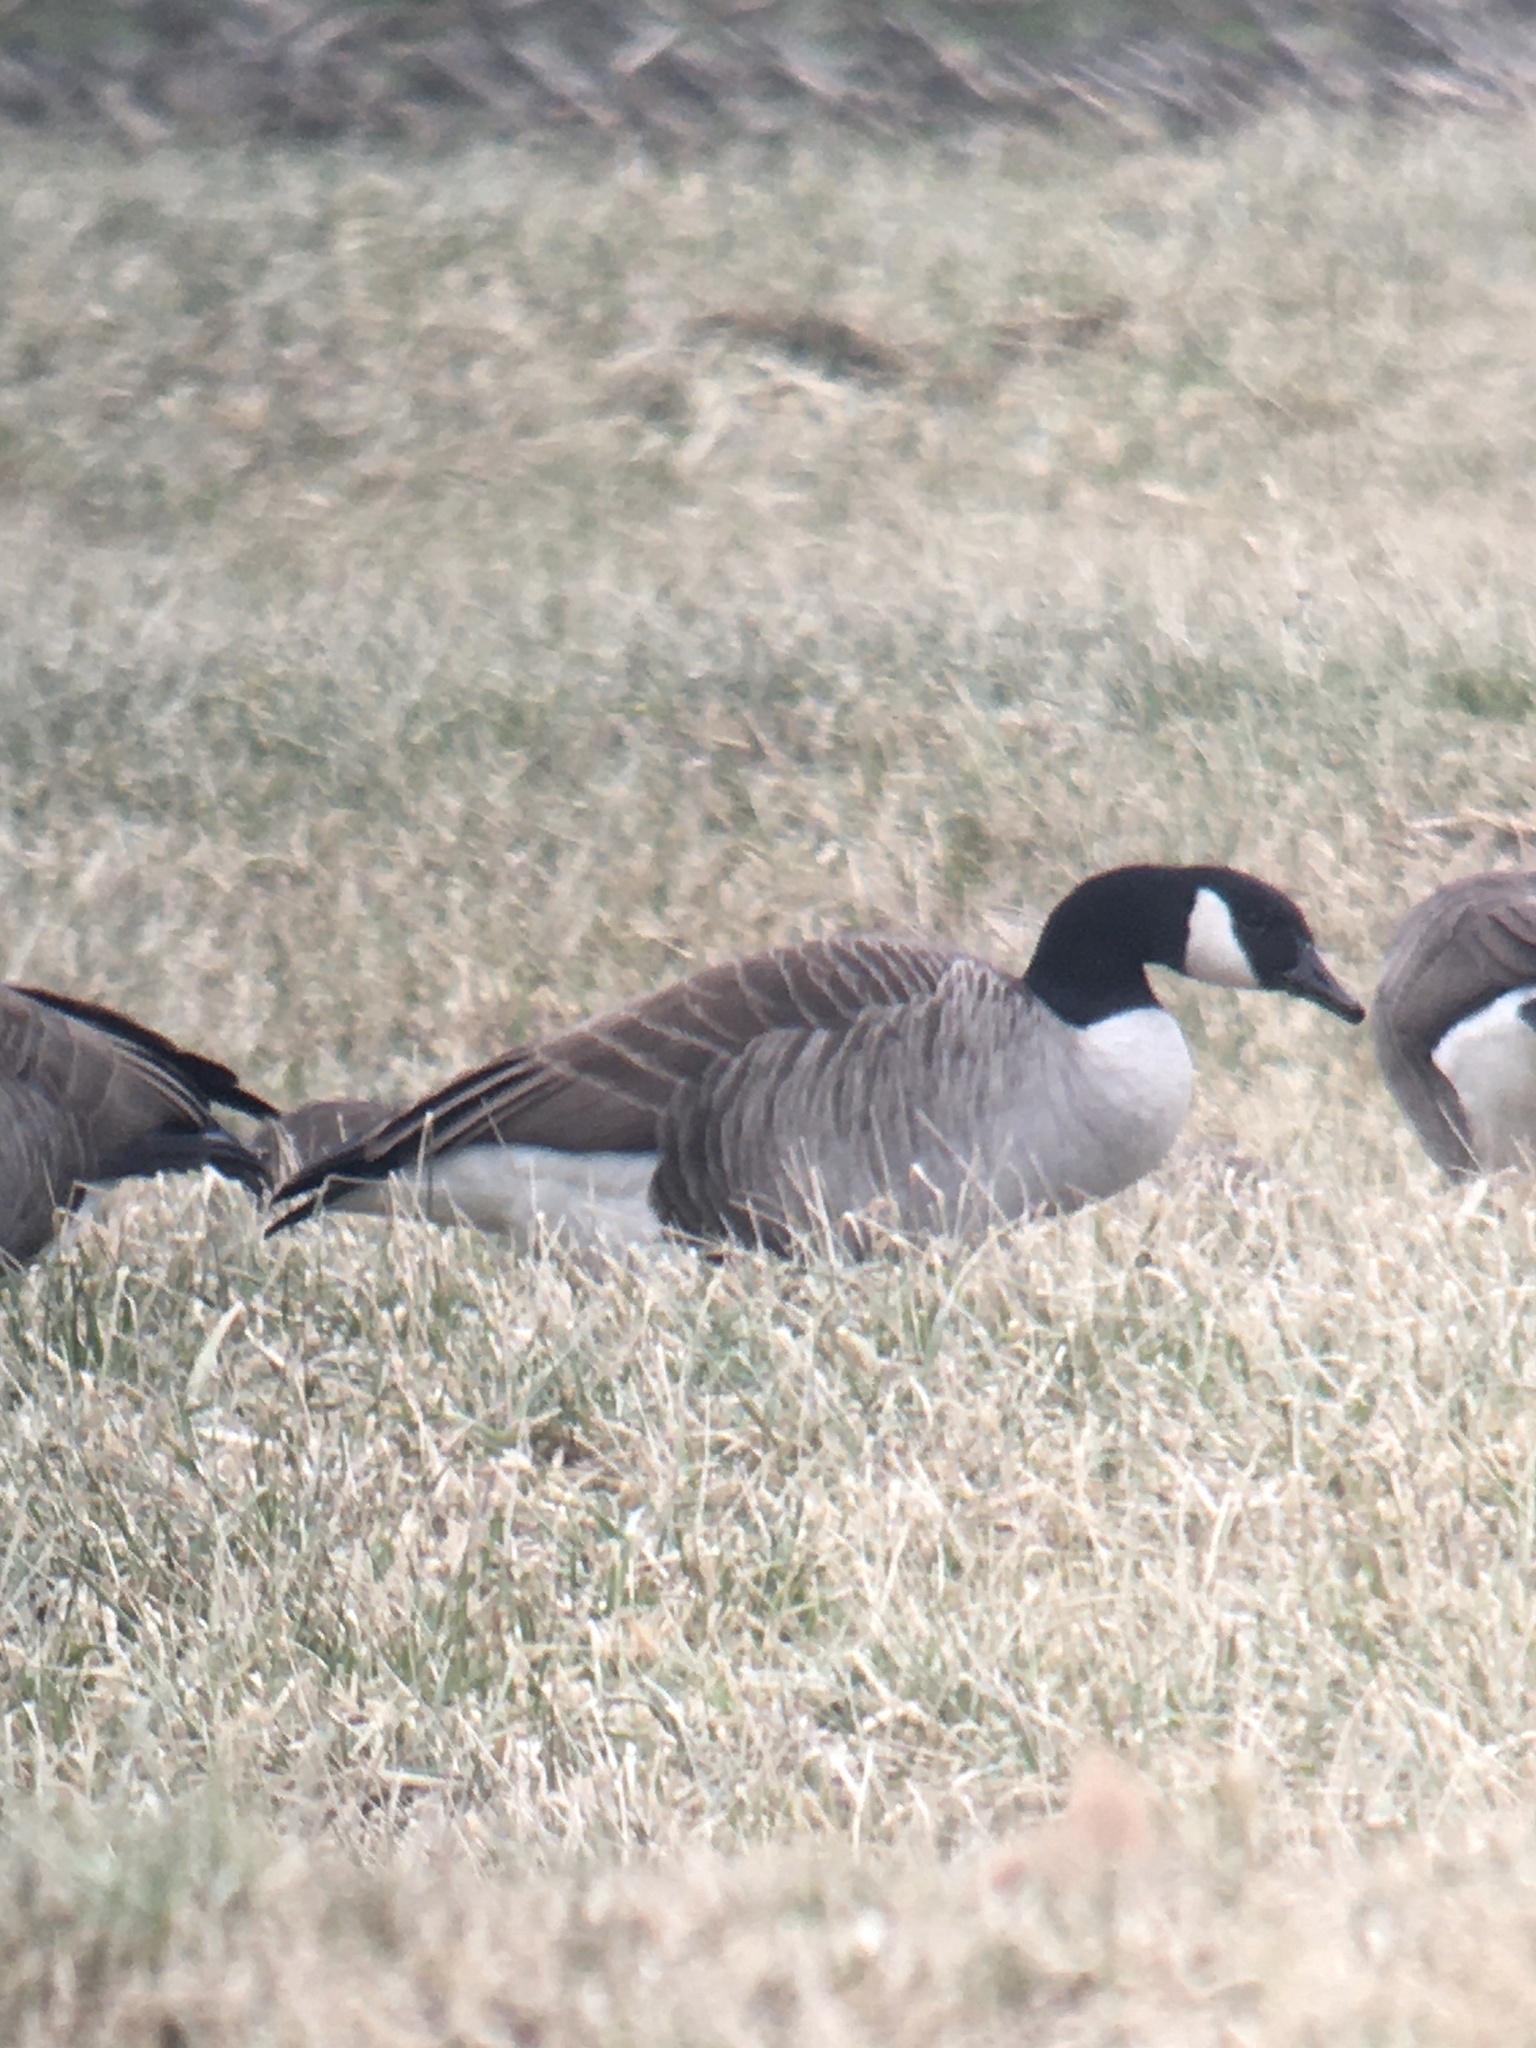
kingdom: Animalia
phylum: Chordata
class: Aves
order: Anseriformes
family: Anatidae
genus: Branta
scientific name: Branta canadensis
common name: Canada goose
